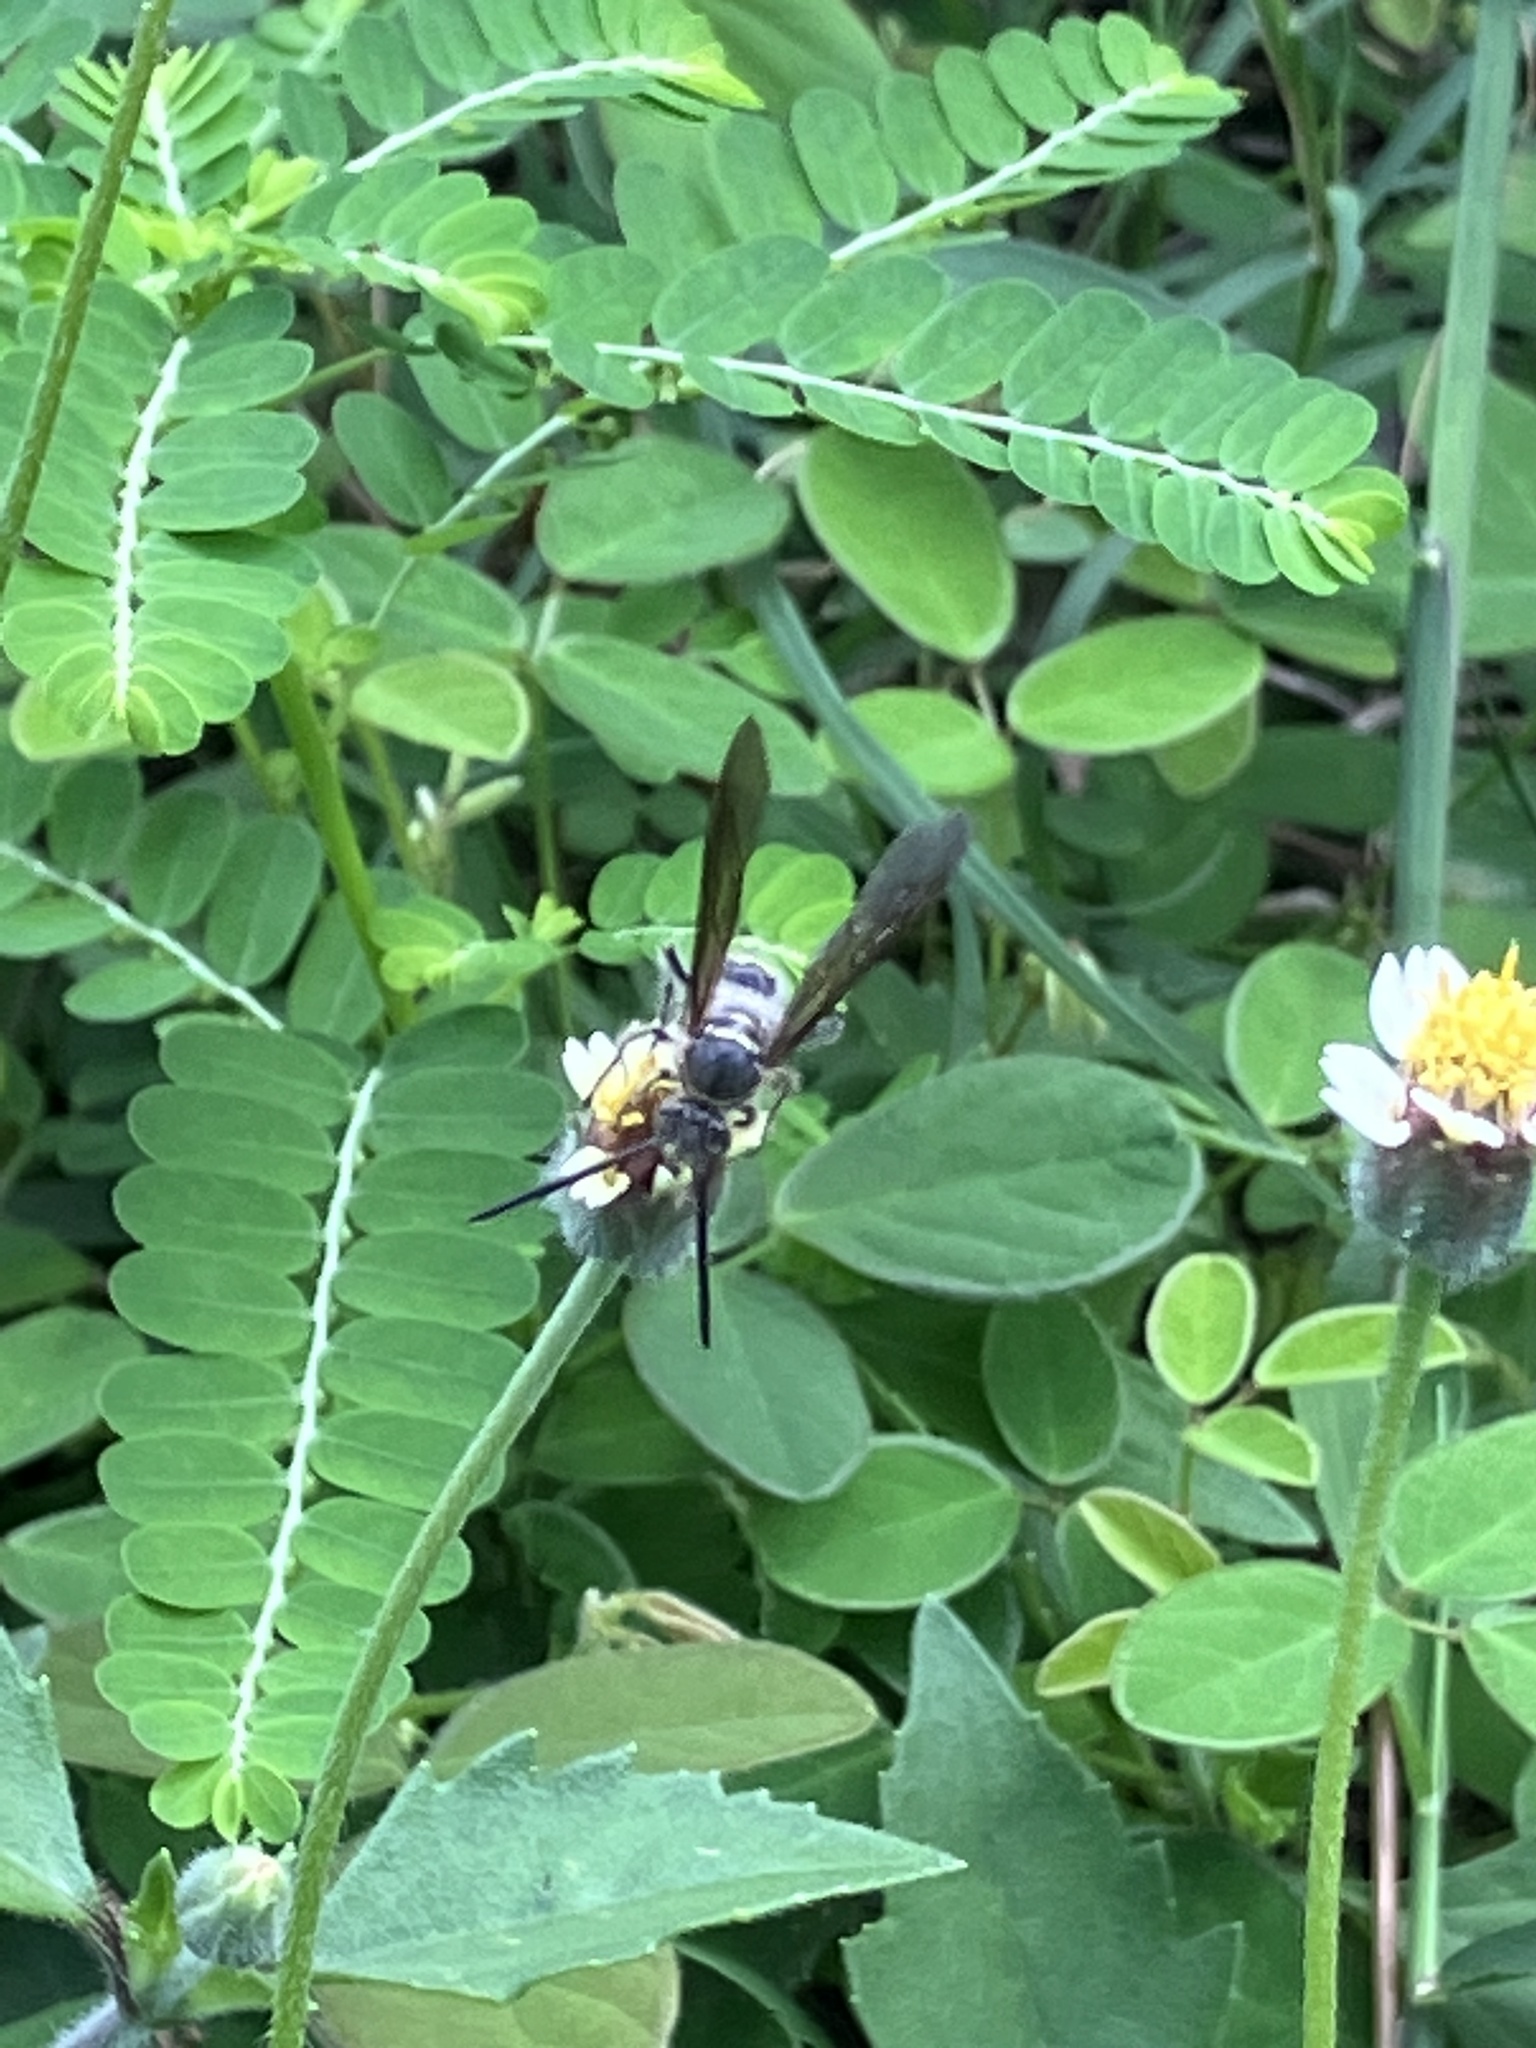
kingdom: Animalia
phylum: Arthropoda
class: Insecta
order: Hymenoptera
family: Scoliidae
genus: Dielis
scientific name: Dielis dorsata
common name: Scoliid wasp
